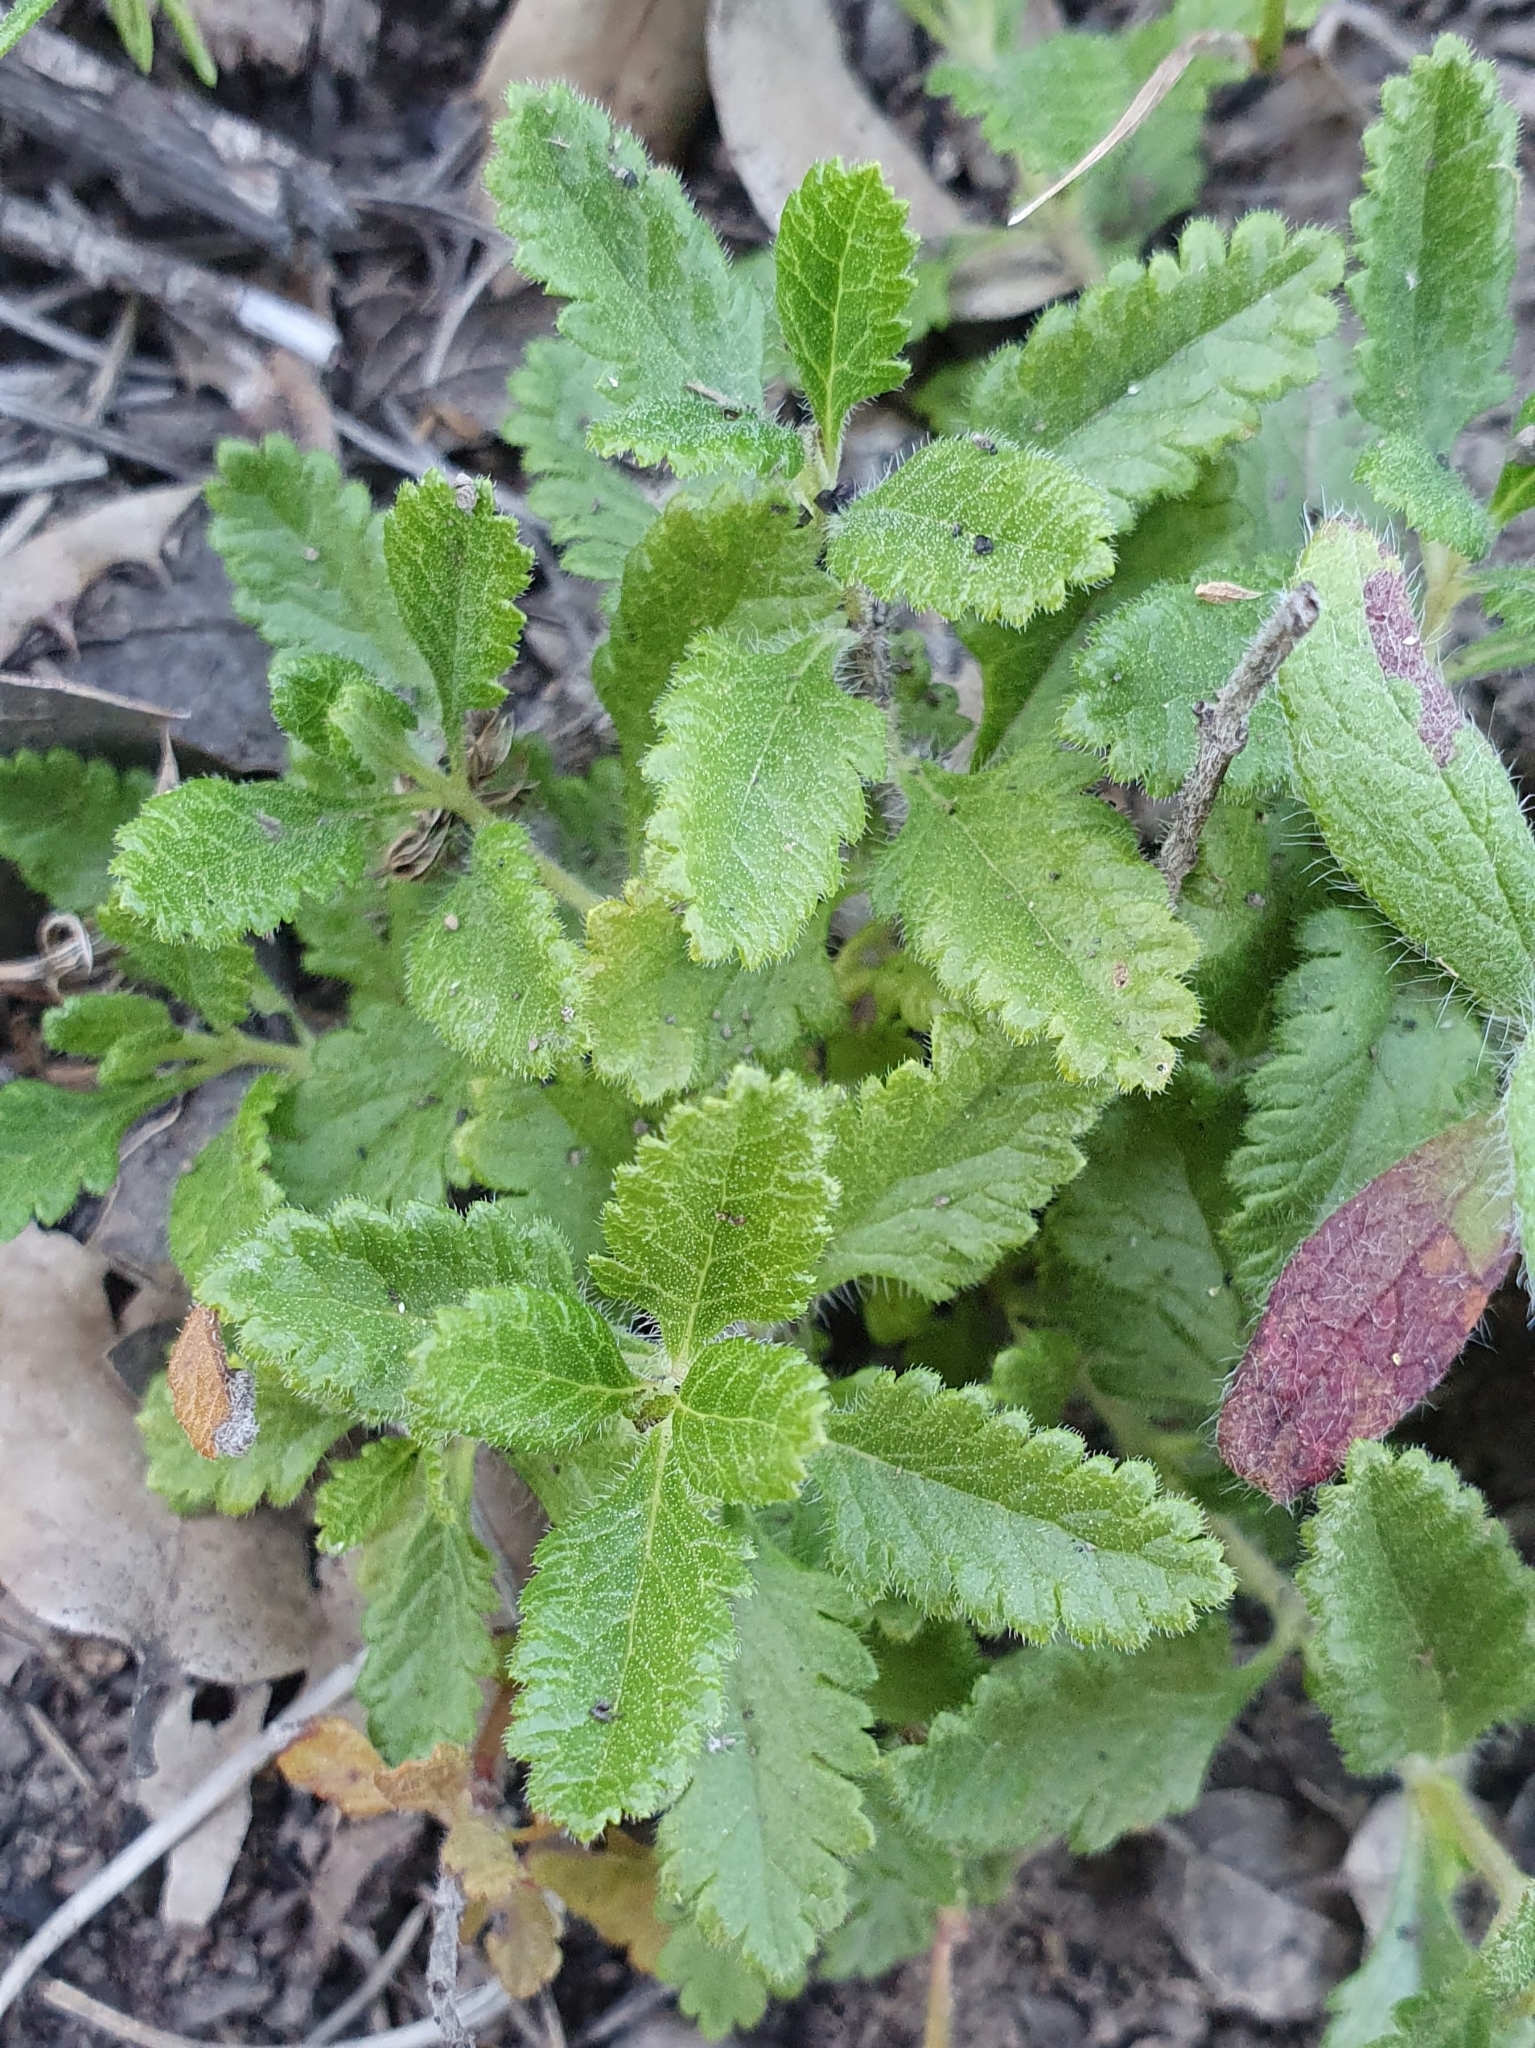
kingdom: Plantae
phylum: Tracheophyta
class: Magnoliopsida
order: Lamiales
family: Lamiaceae
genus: Teucrium
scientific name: Teucrium chamaedrys
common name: Wall germander
